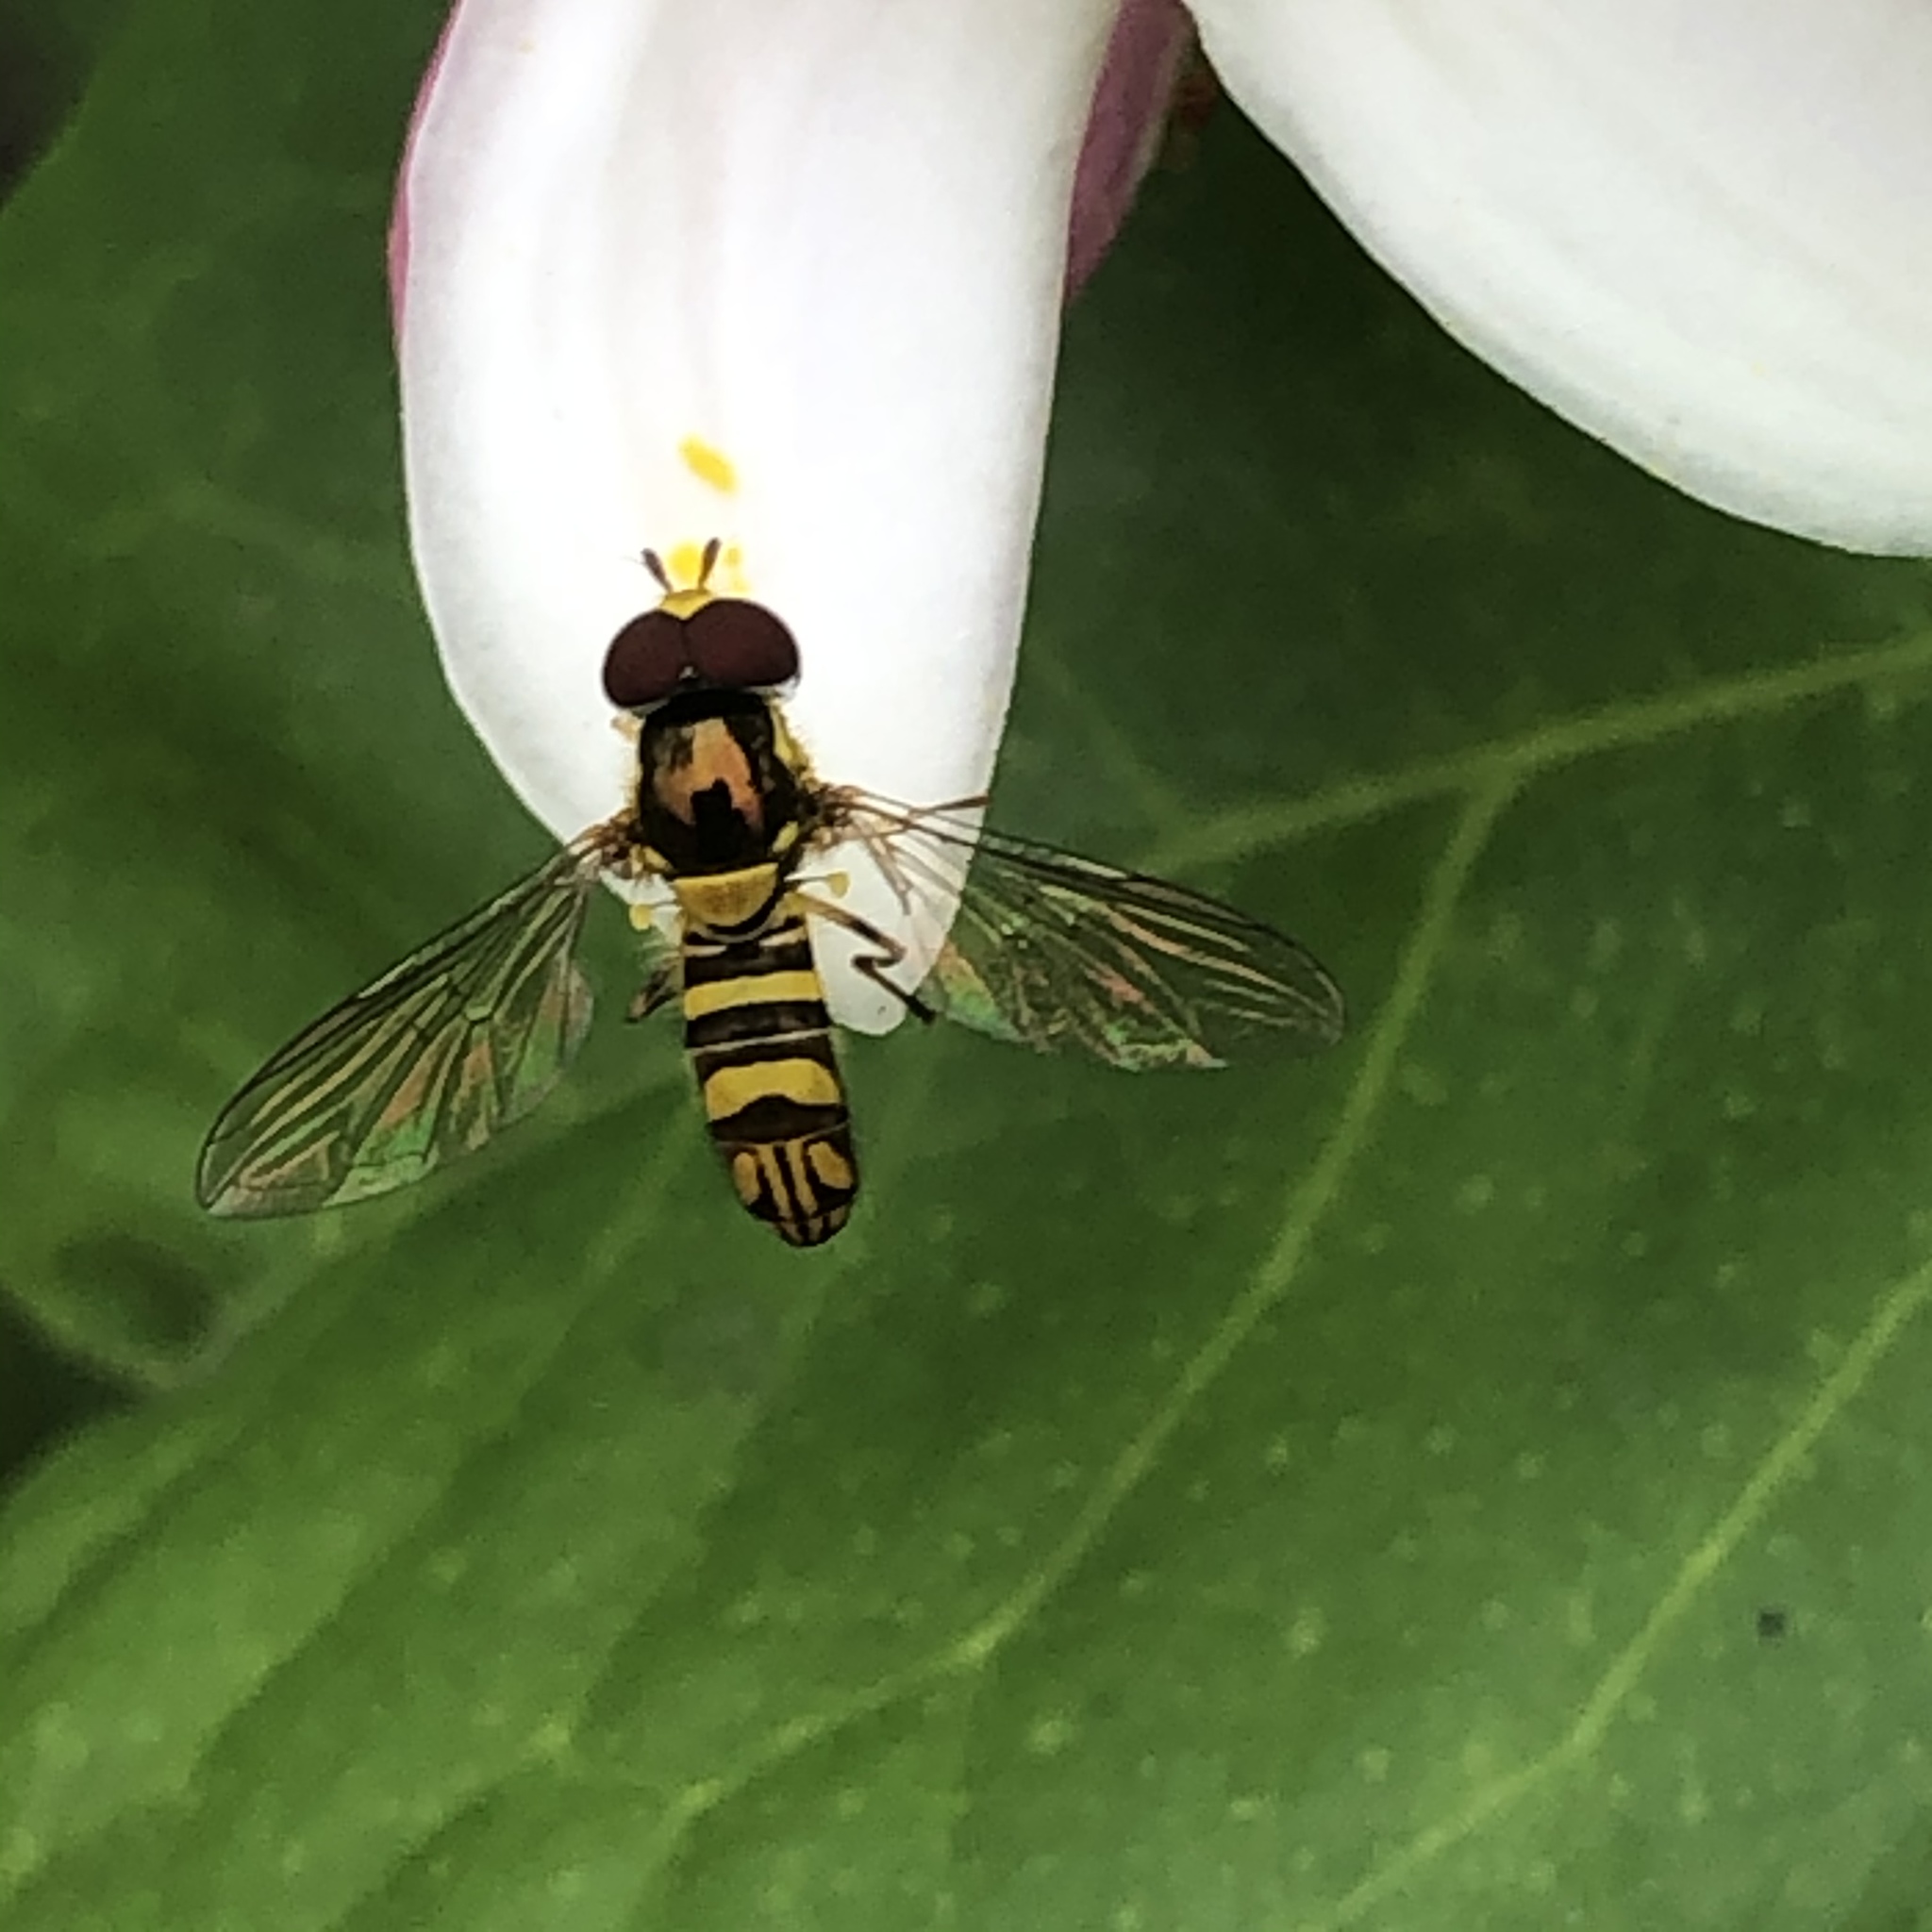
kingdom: Animalia
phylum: Arthropoda
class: Insecta
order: Diptera
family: Syrphidae
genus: Allograpta
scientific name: Allograpta obliqua
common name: Common oblique syrphid
